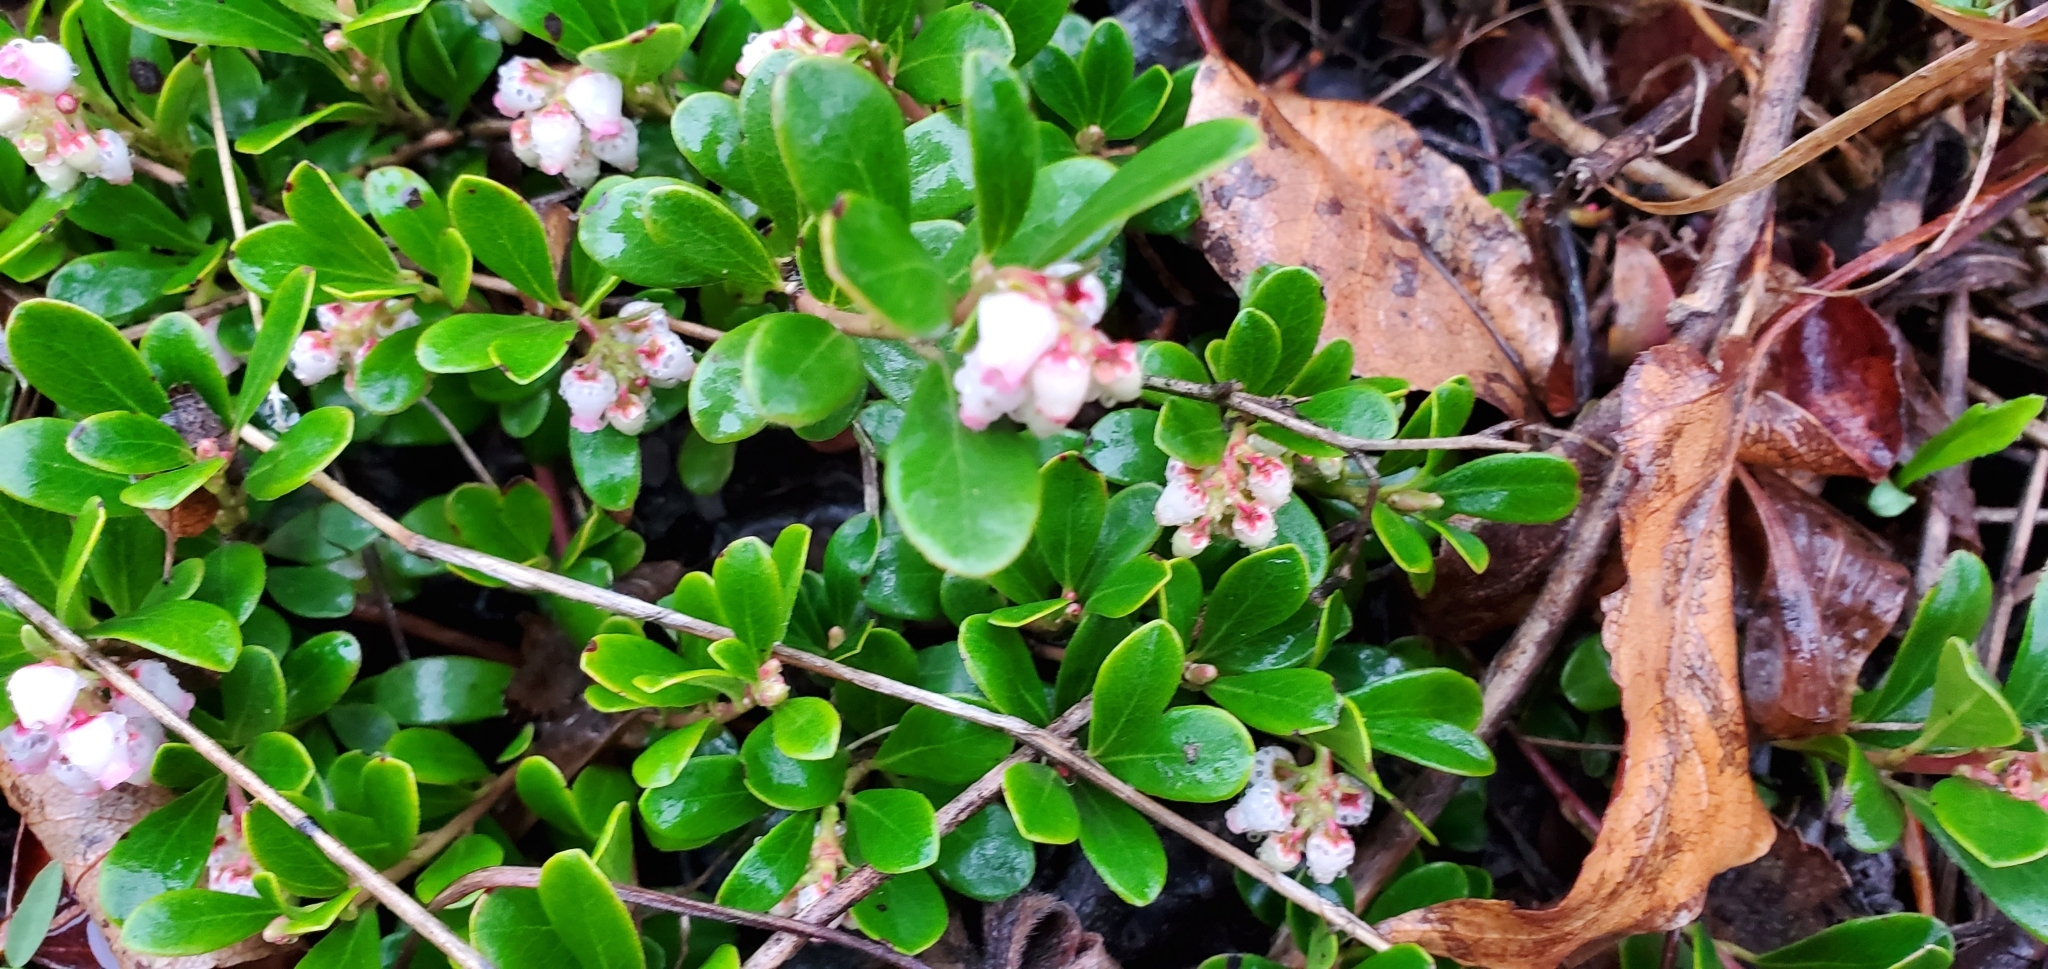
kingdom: Plantae
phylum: Tracheophyta
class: Magnoliopsida
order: Ericales
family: Ericaceae
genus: Arctostaphylos
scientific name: Arctostaphylos uva-ursi
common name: Bearberry
